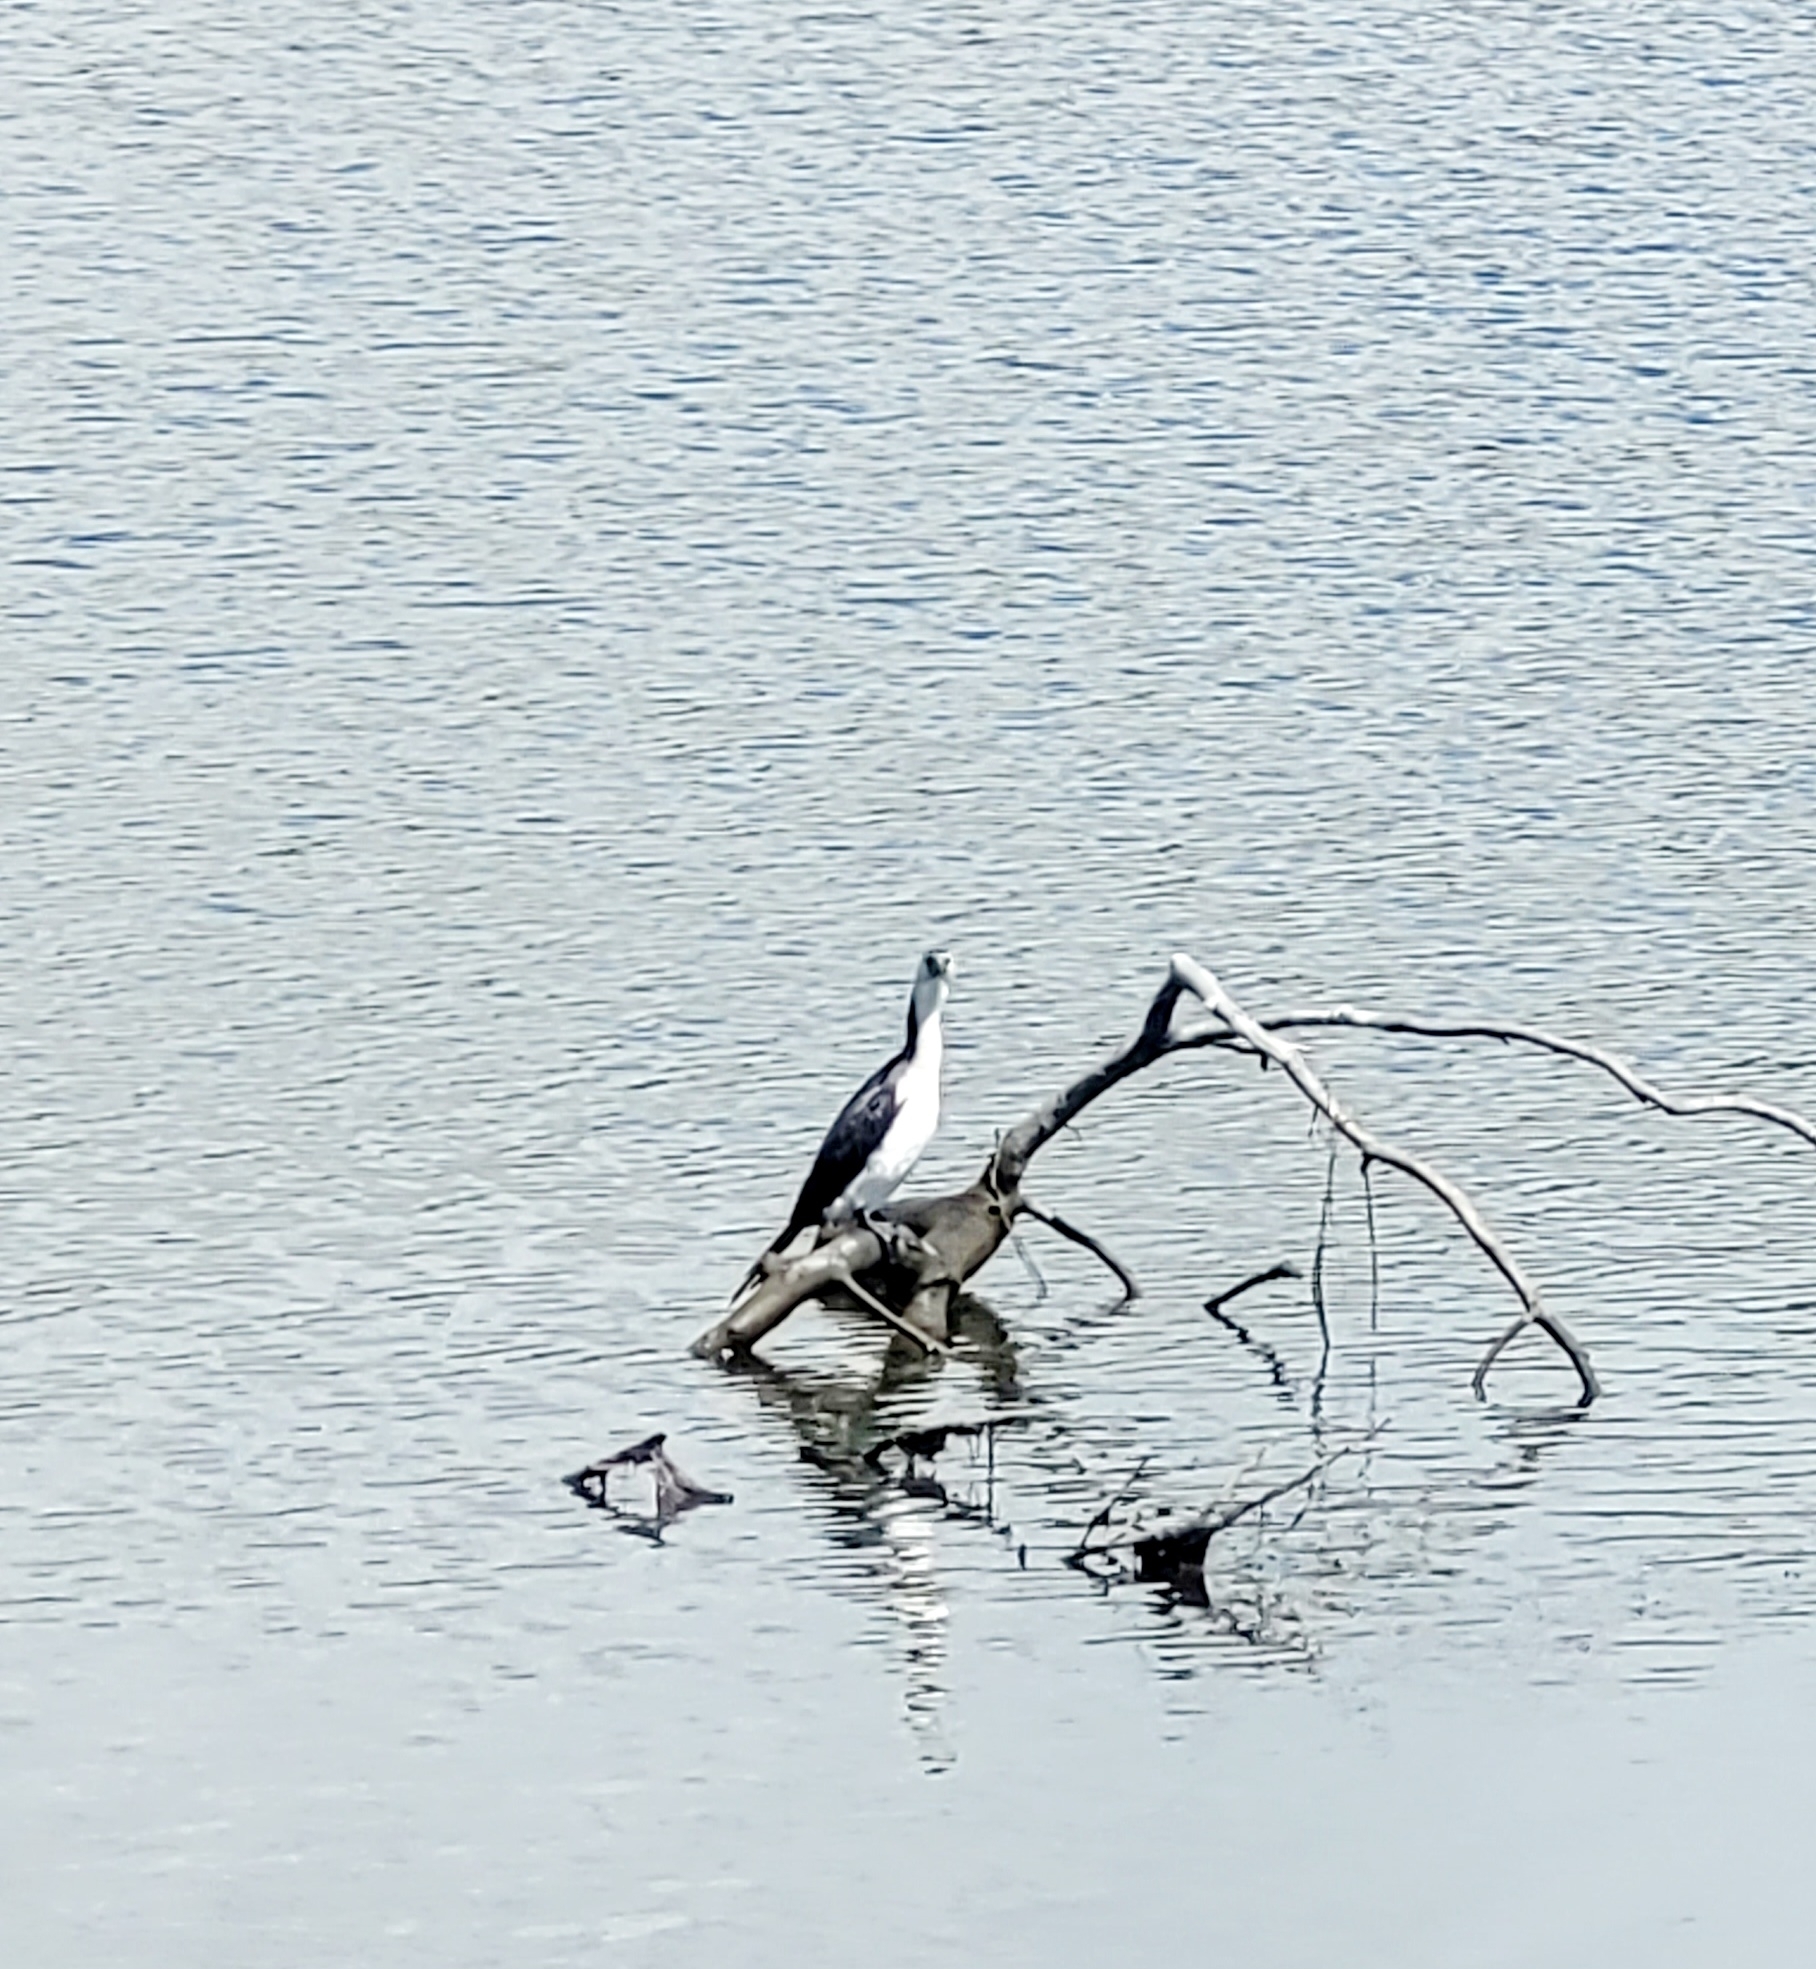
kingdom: Animalia
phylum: Chordata
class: Aves
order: Suliformes
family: Phalacrocoracidae
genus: Microcarbo
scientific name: Microcarbo melanoleucos
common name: Little pied cormorant
